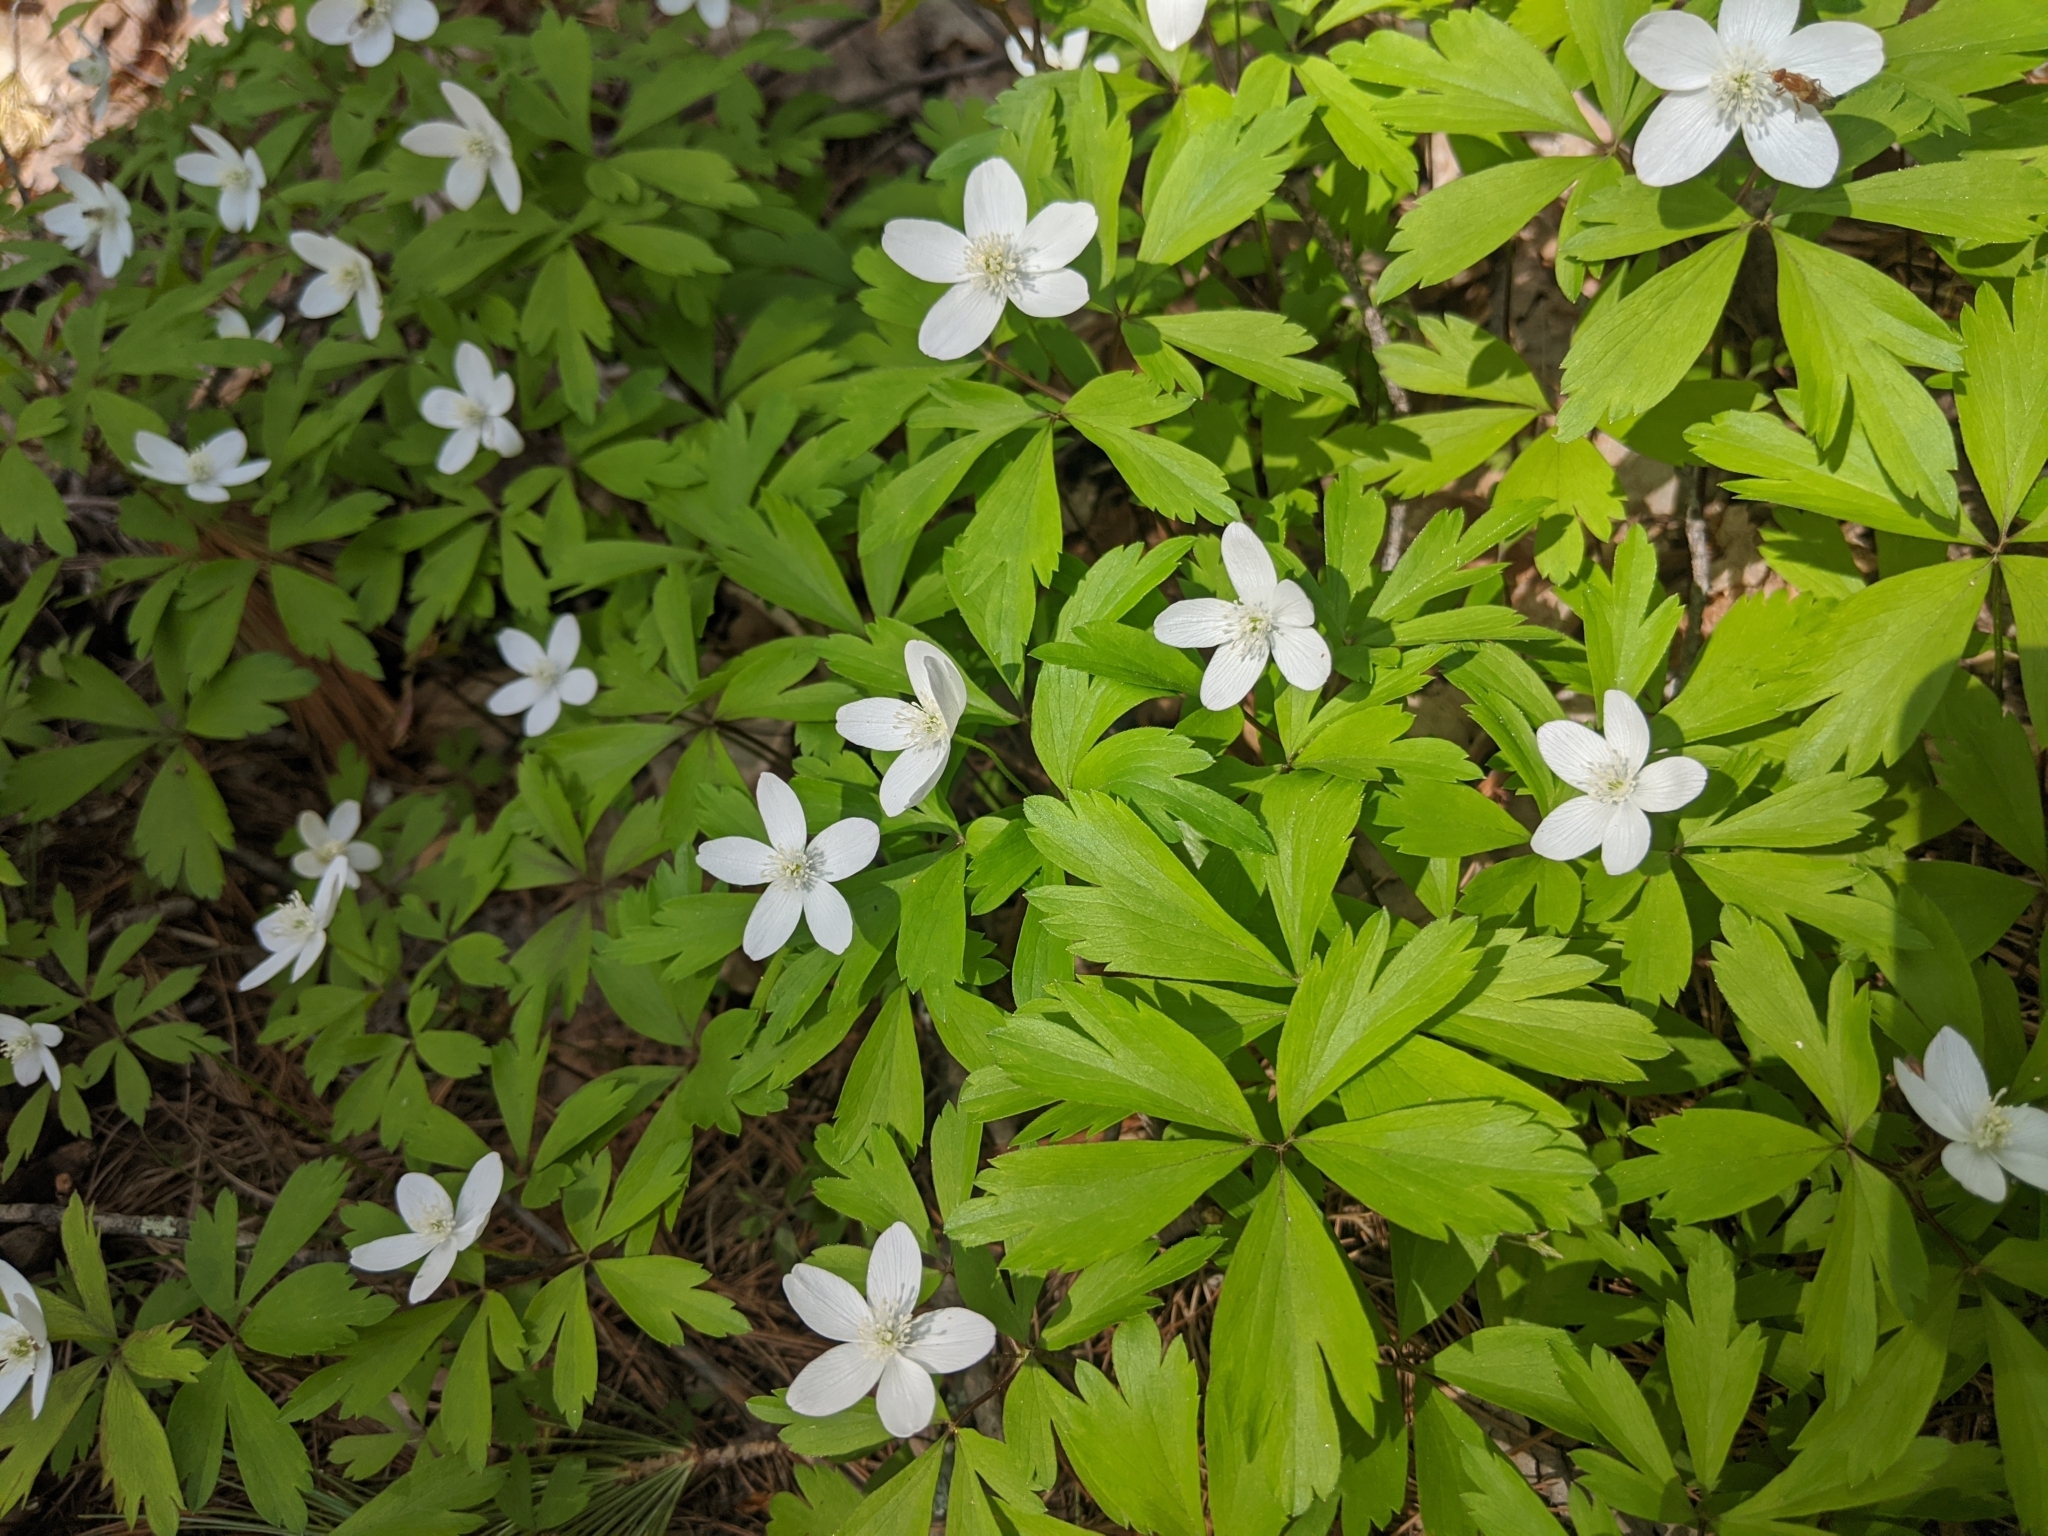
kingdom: Plantae
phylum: Tracheophyta
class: Magnoliopsida
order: Ranunculales
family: Ranunculaceae
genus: Anemone
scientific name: Anemone quinquefolia
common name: Wood anemone
